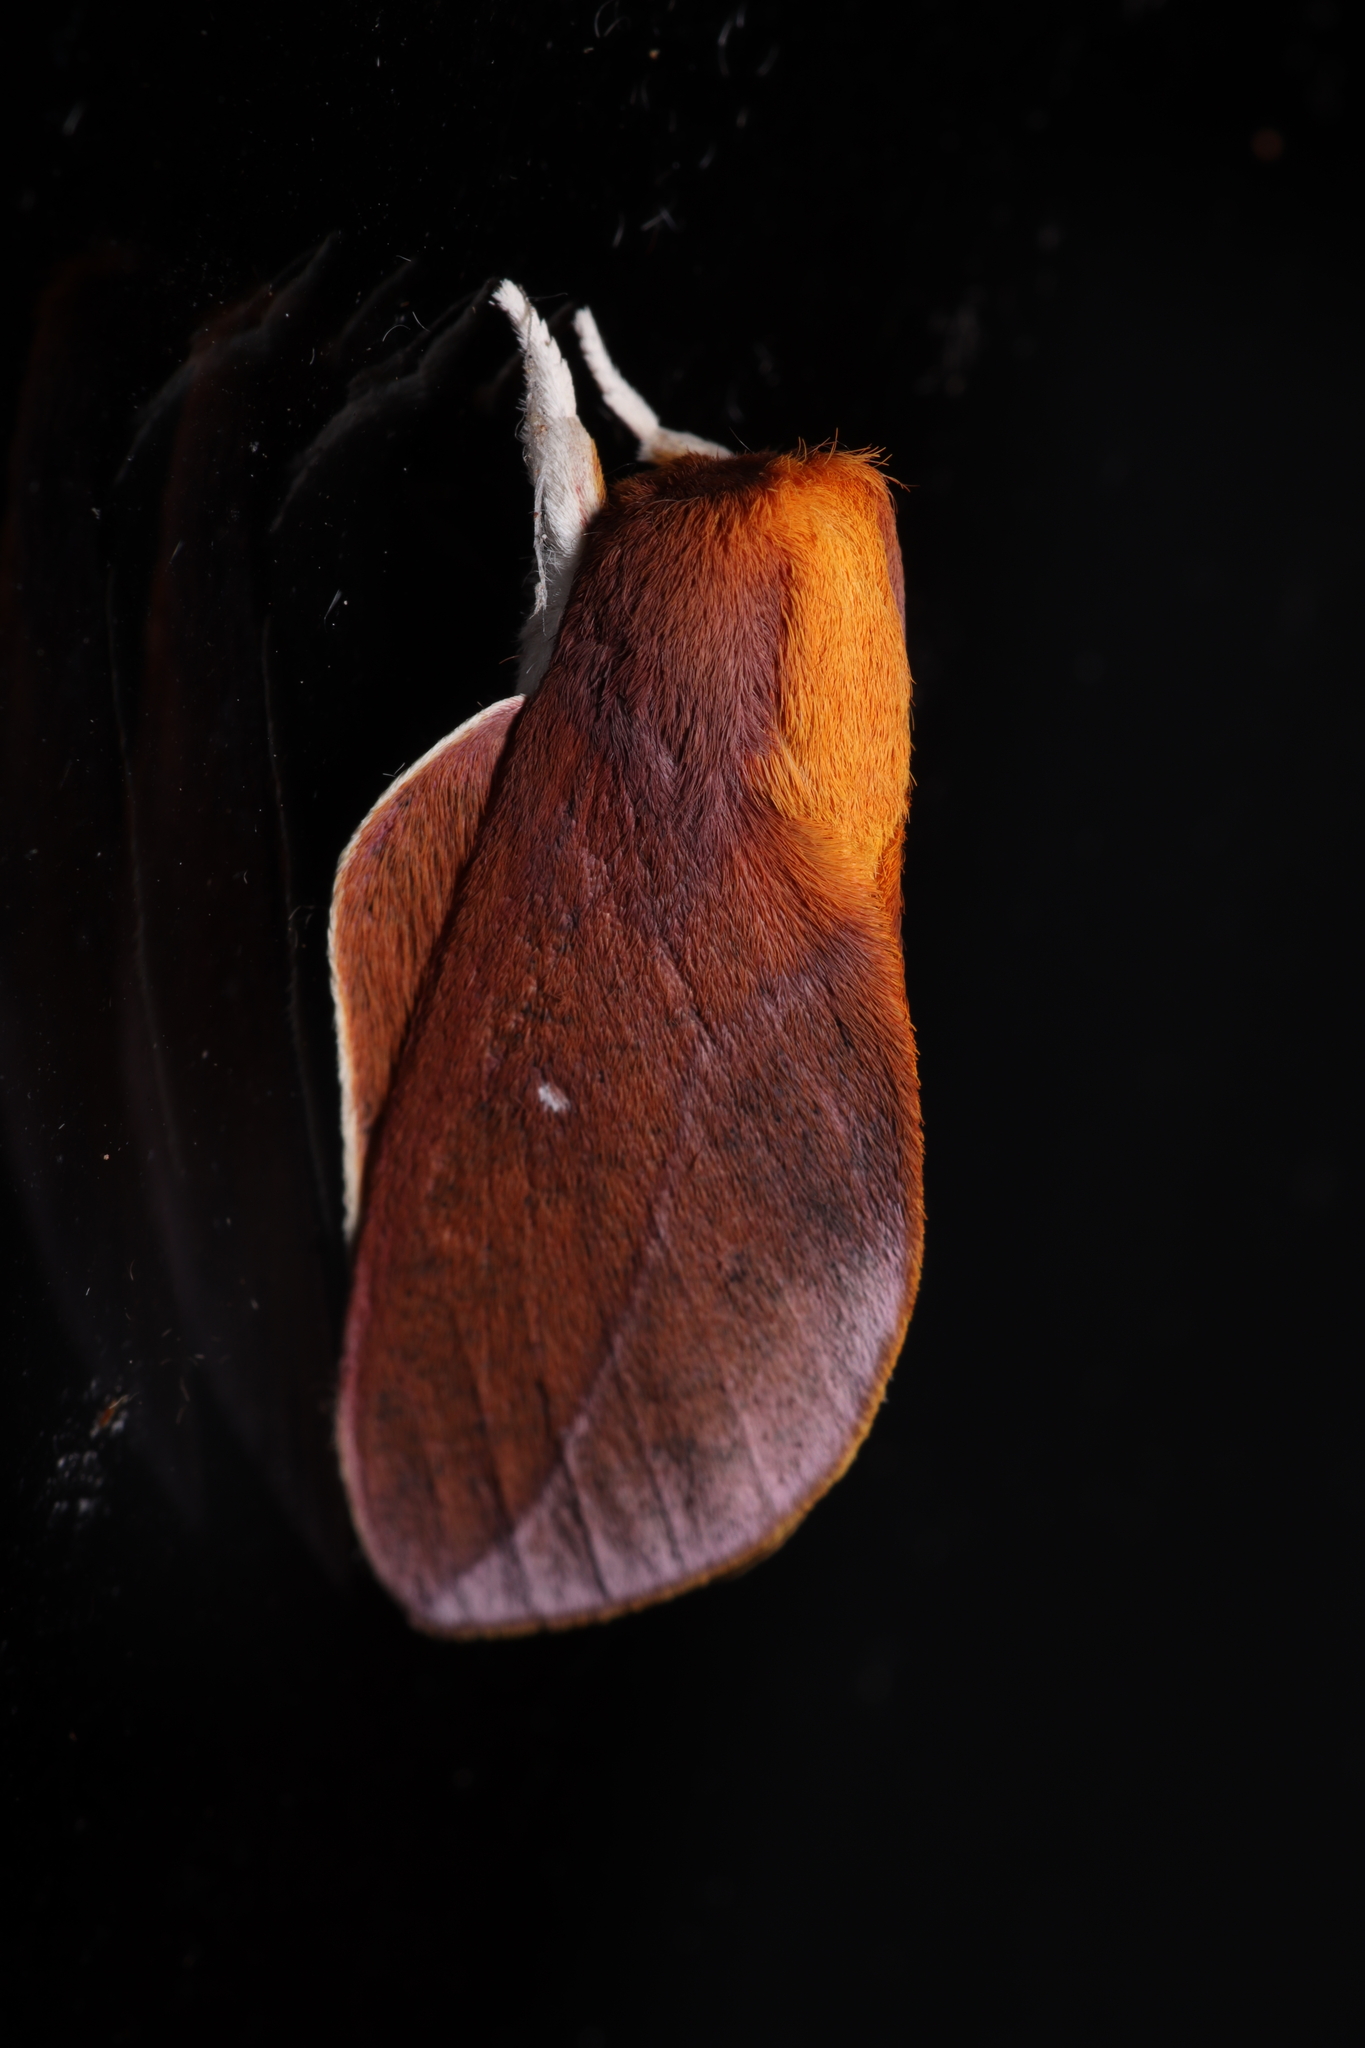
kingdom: Animalia
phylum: Arthropoda
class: Insecta
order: Lepidoptera
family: Saturniidae
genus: Cicia
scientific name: Cicia crocata
